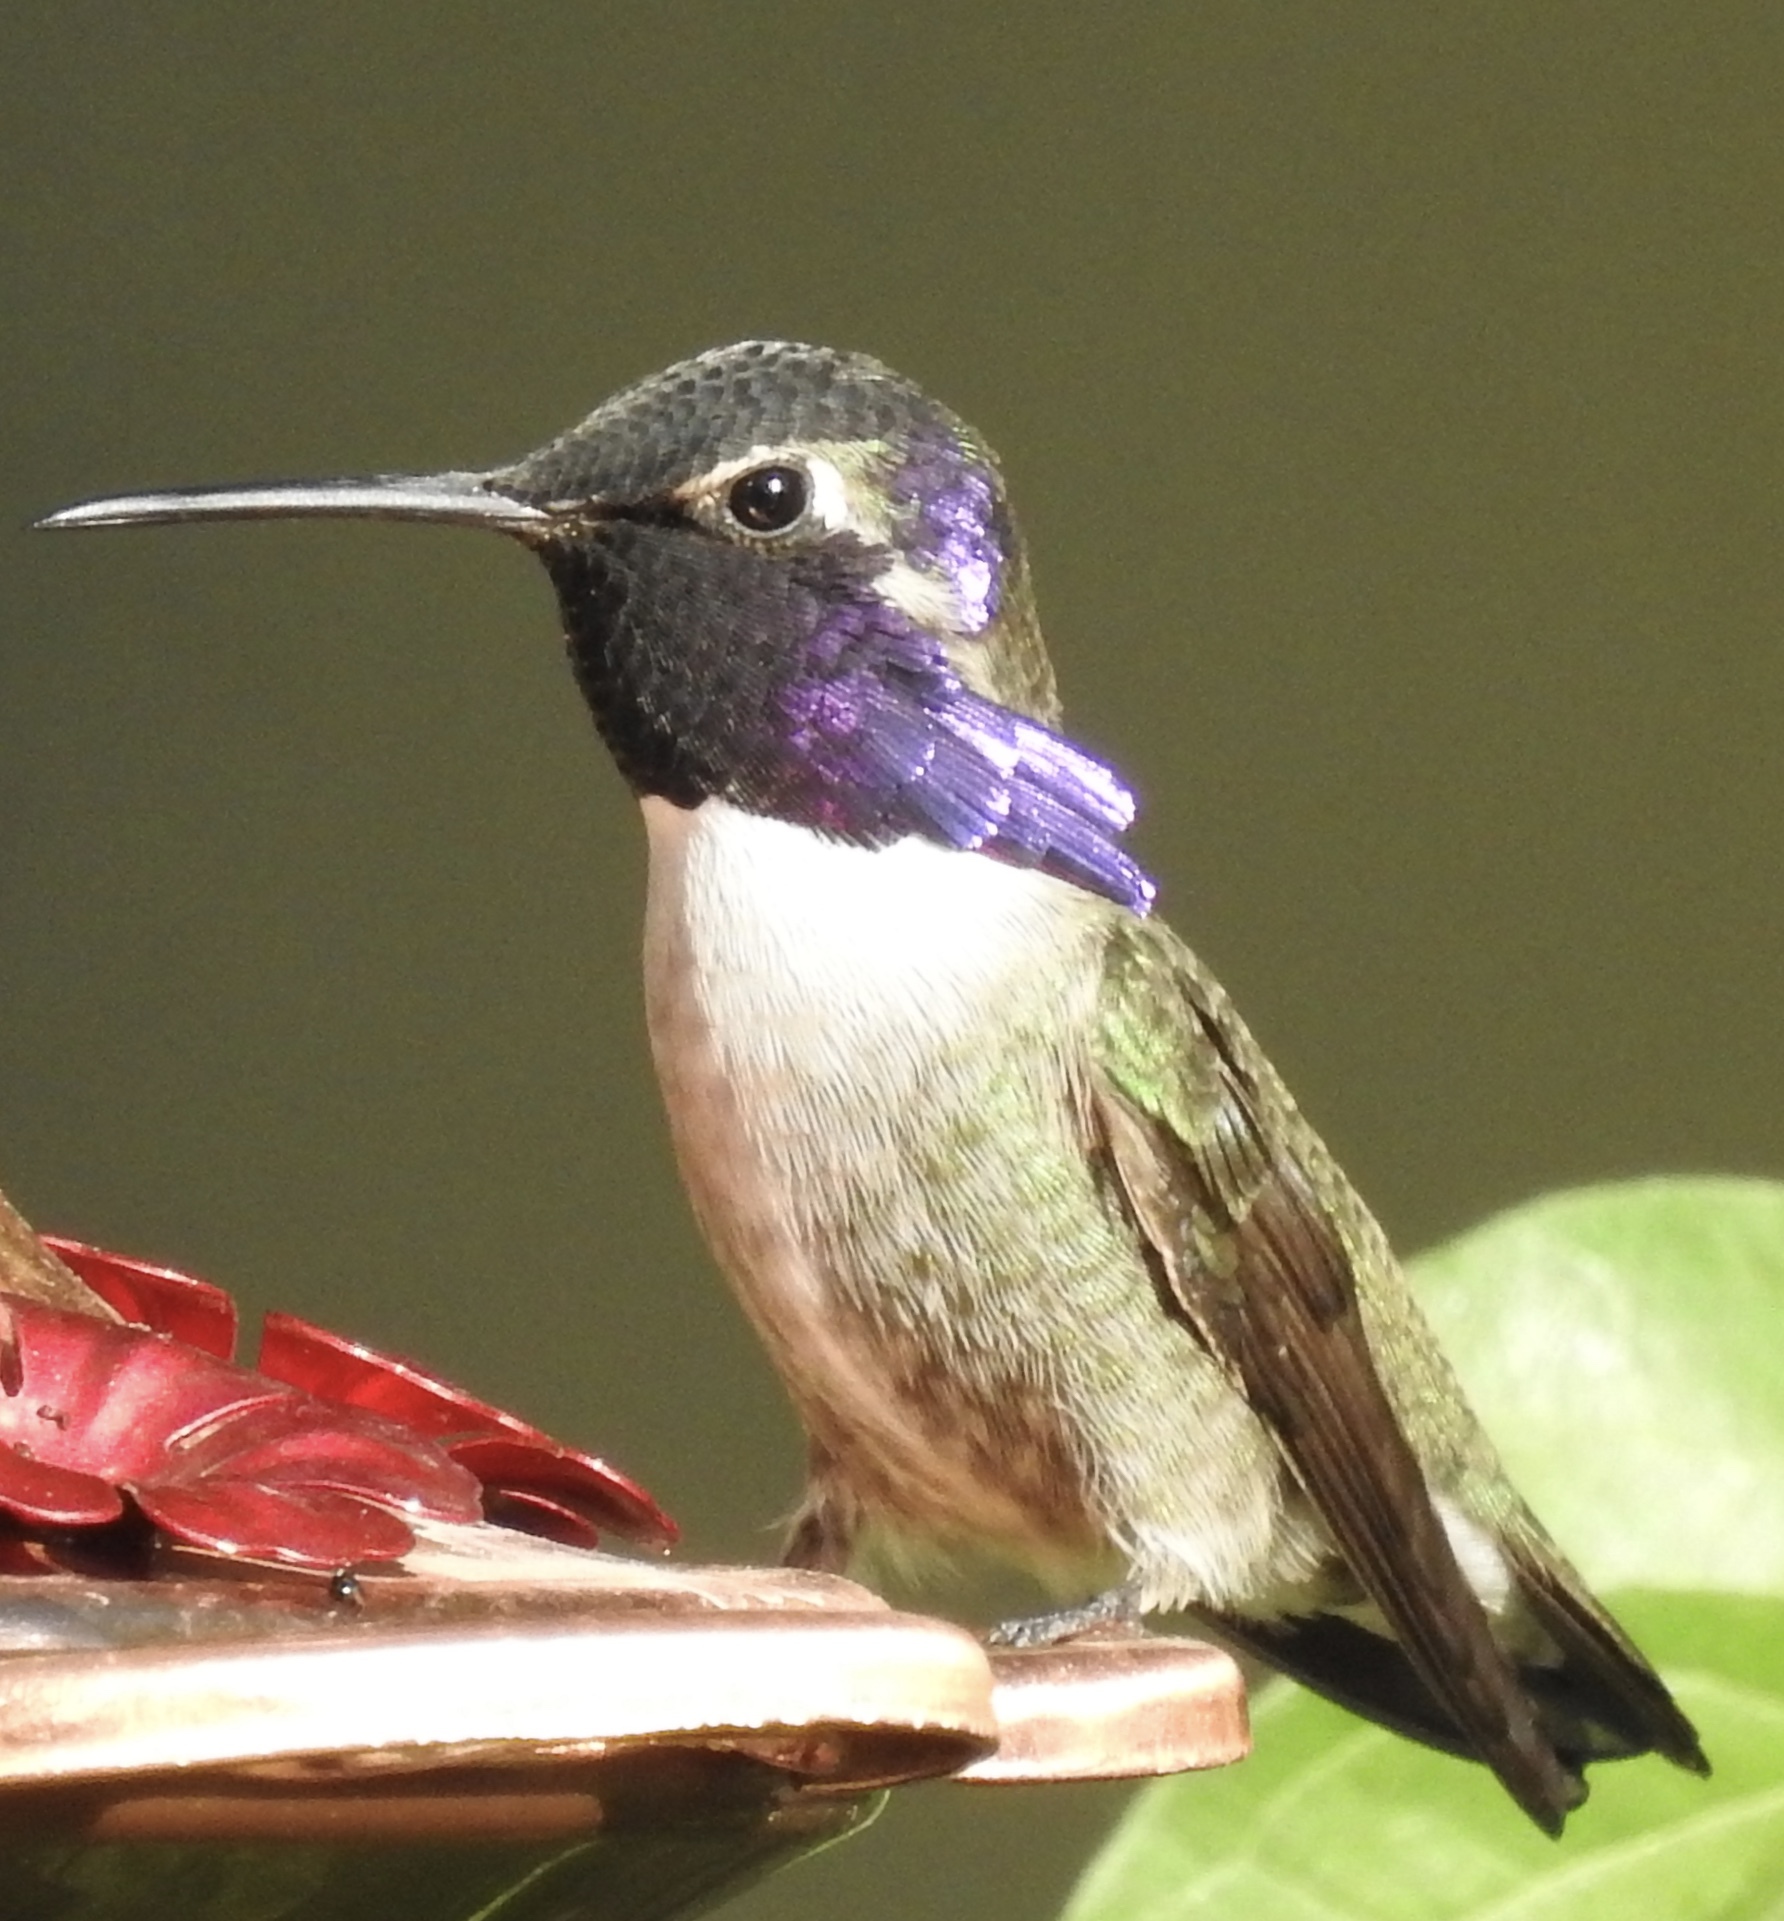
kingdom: Animalia
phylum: Chordata
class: Aves
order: Apodiformes
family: Trochilidae
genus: Calypte
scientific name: Calypte costae
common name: Costa's hummingbird
